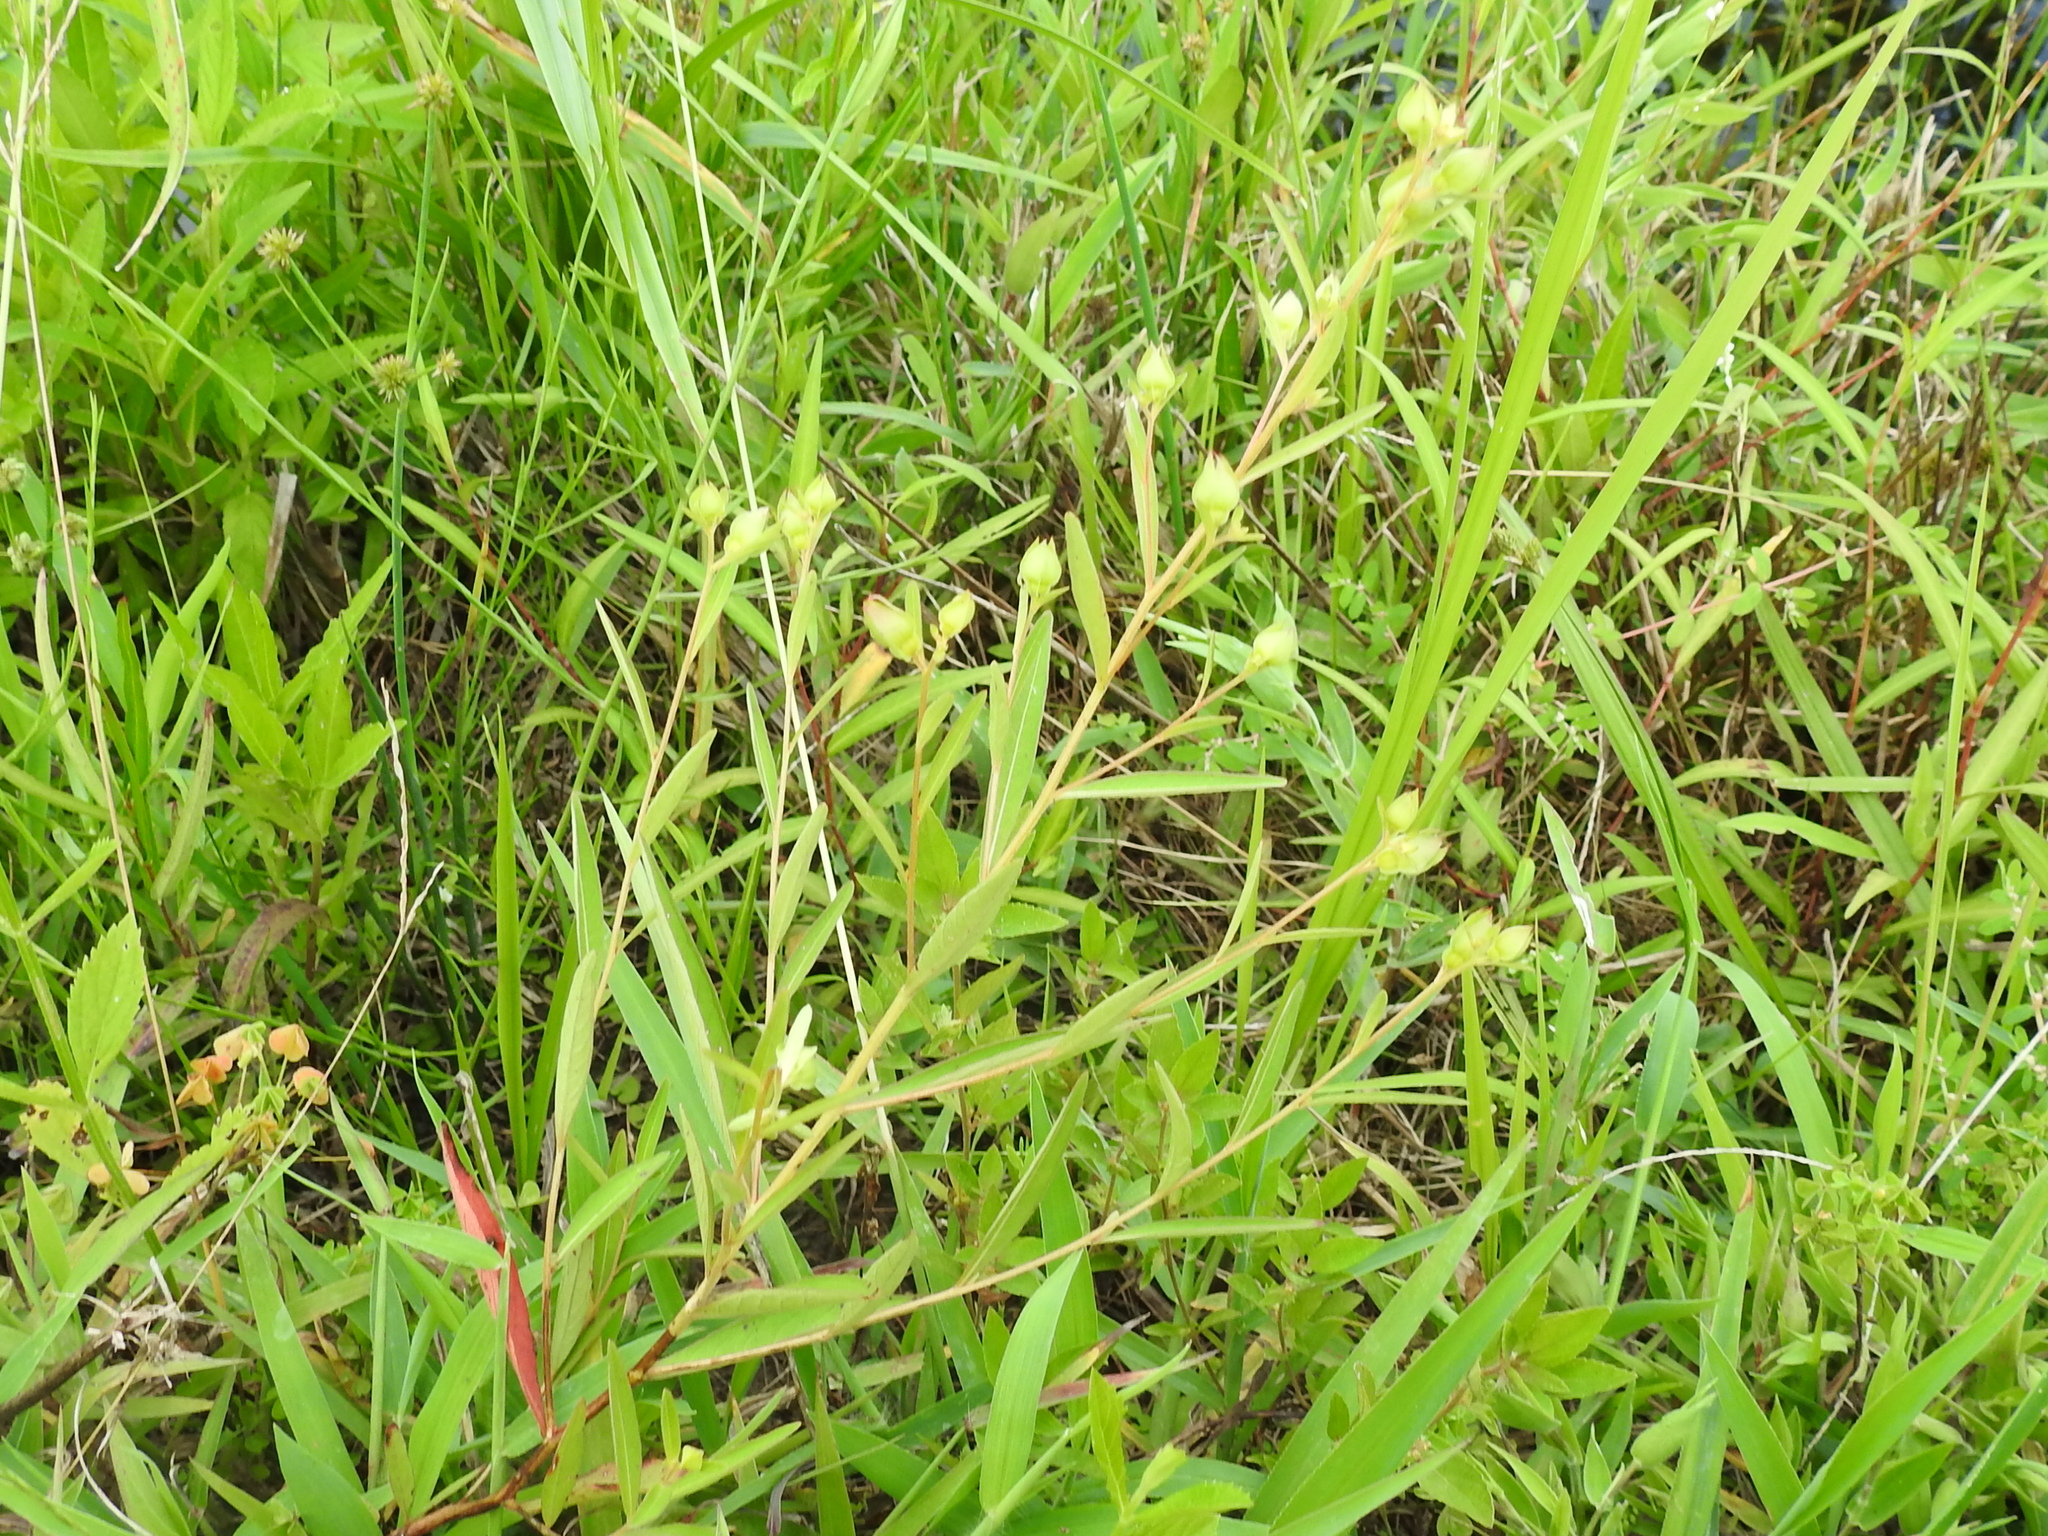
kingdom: Plantae
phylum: Tracheophyta
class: Magnoliopsida
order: Myrtales
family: Onagraceae
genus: Ludwigia
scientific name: Ludwigia alternifolia
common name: Rattlebox
